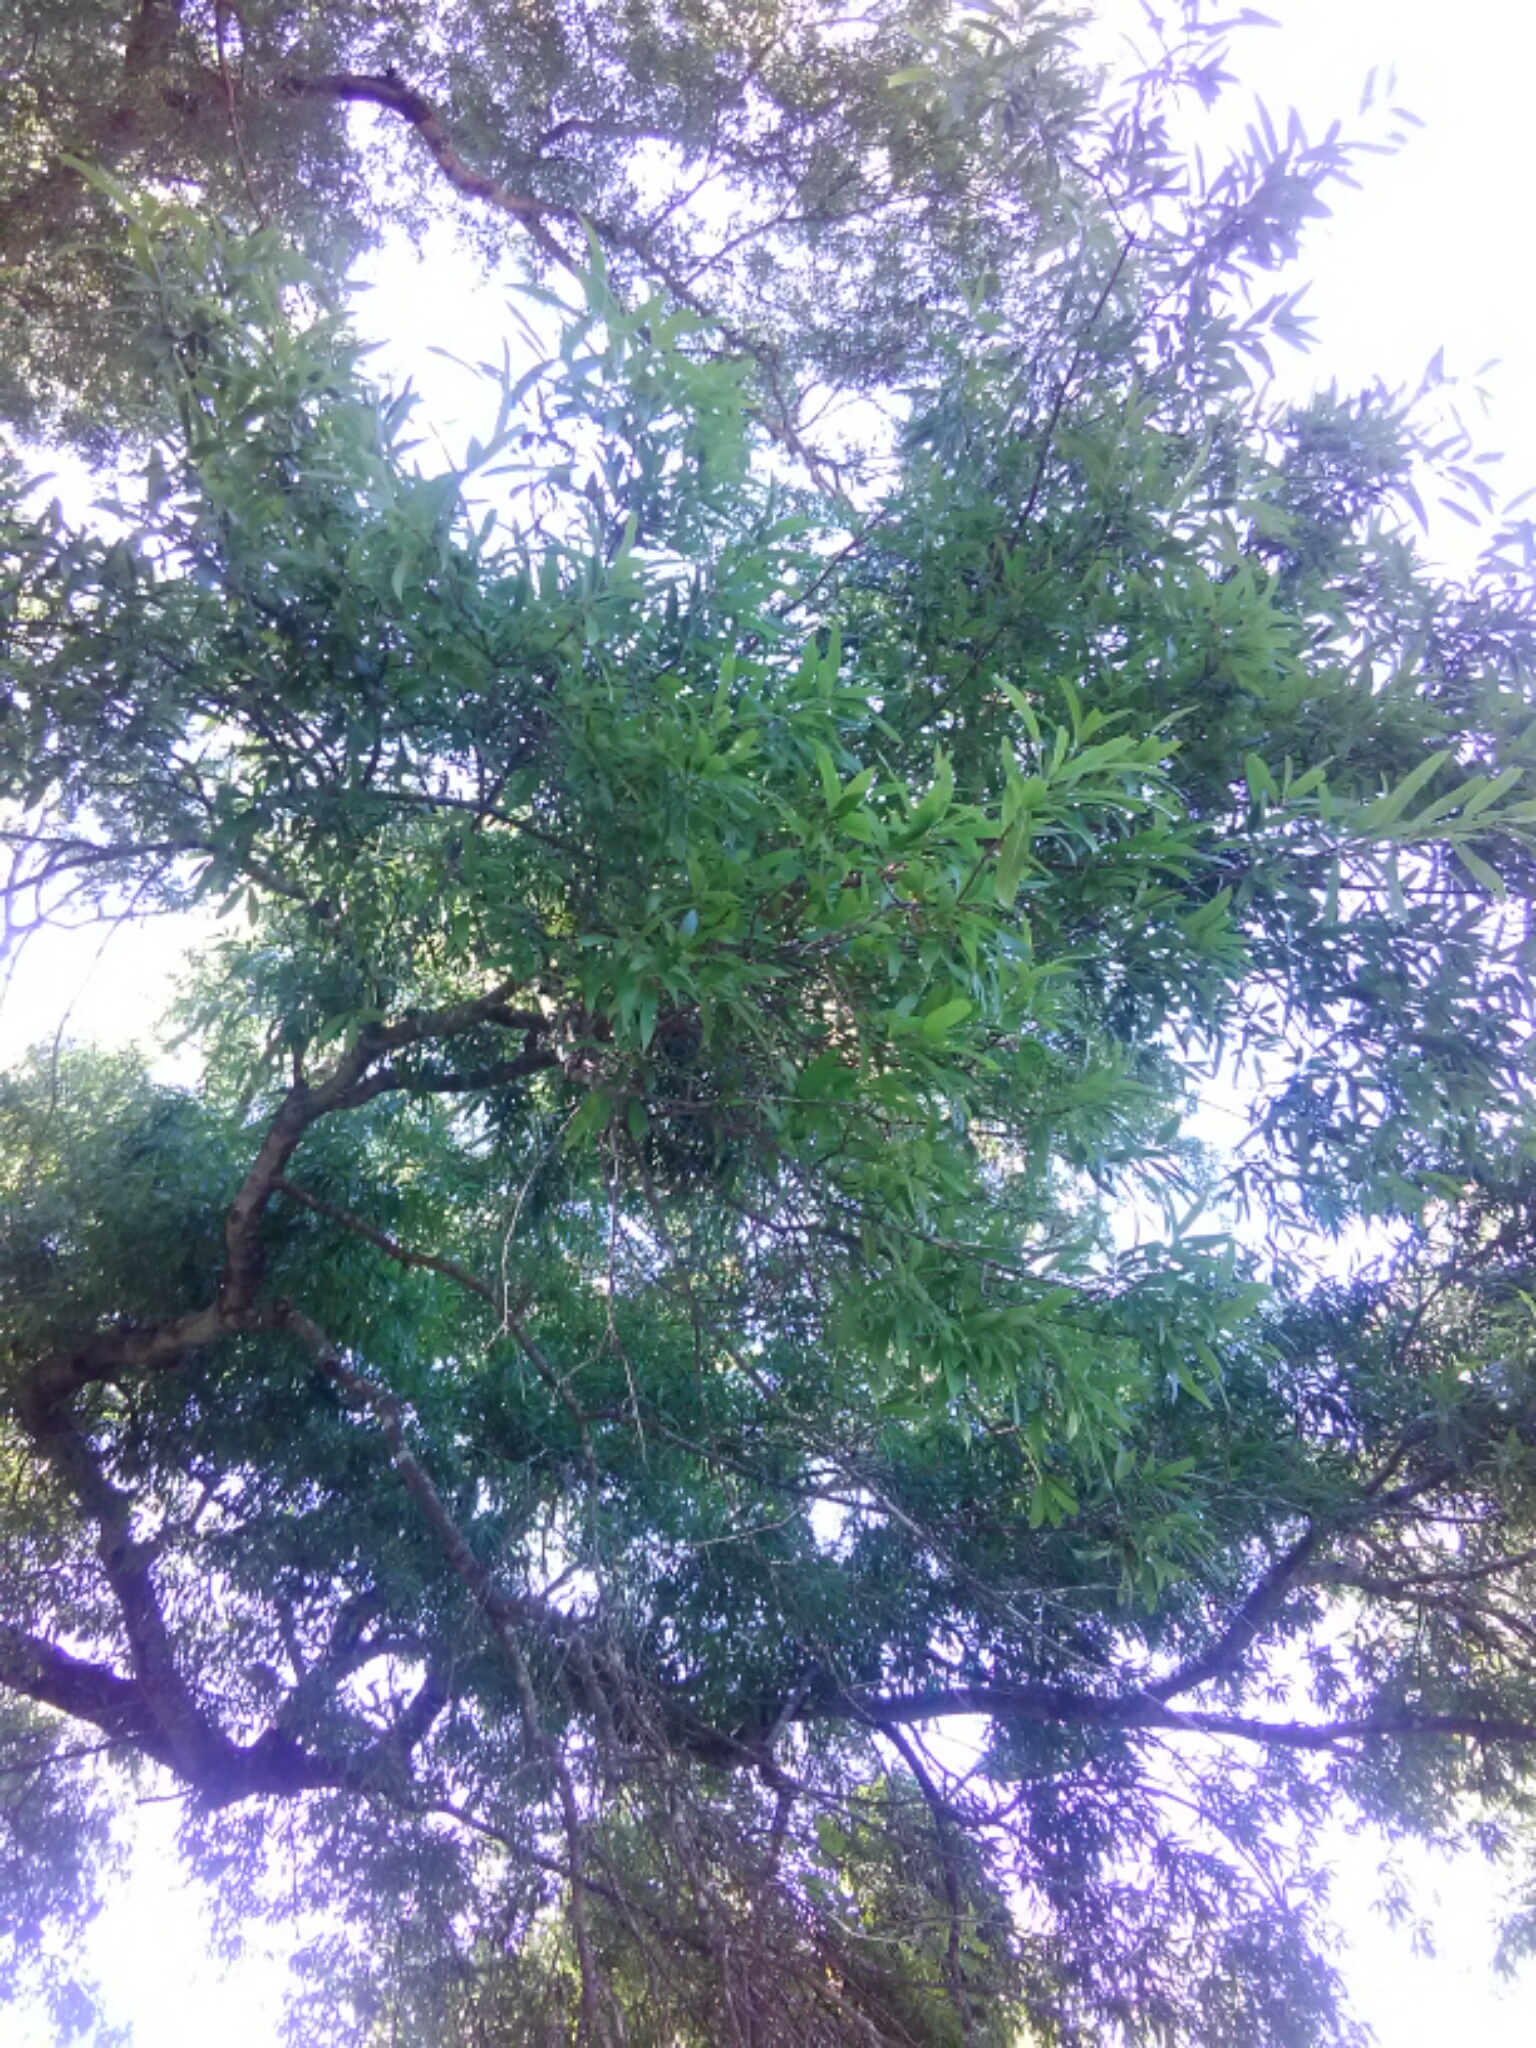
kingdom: Plantae
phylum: Tracheophyta
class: Magnoliopsida
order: Fagales
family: Fagaceae
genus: Quercus
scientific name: Quercus phellos
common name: Willow oak
